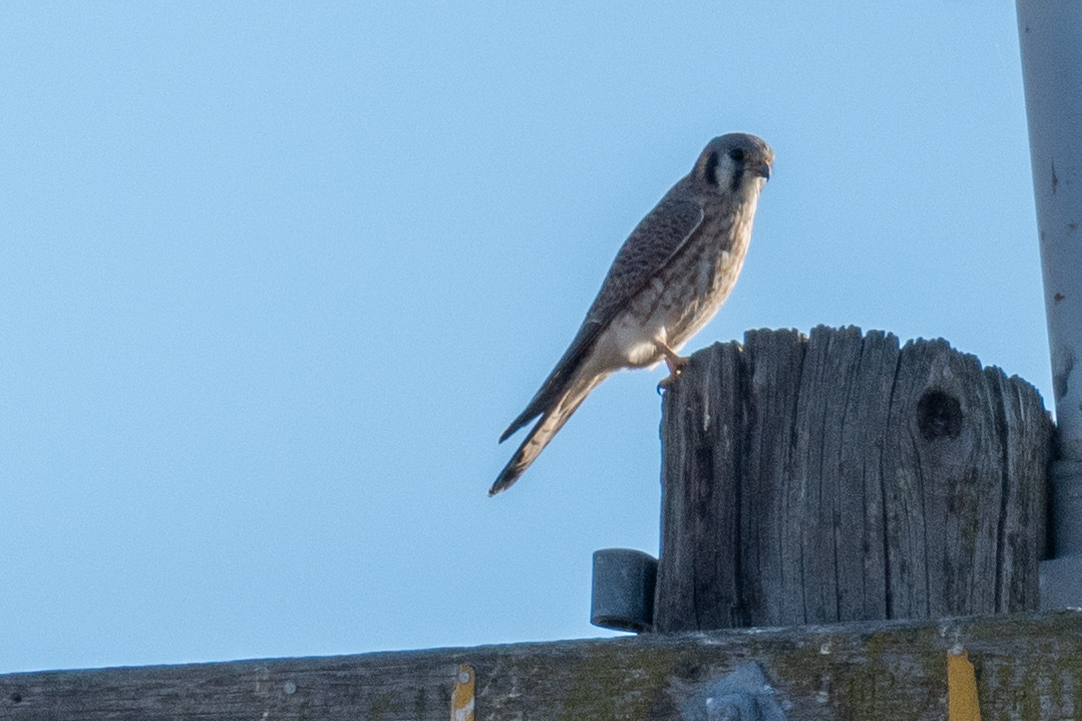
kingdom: Animalia
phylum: Chordata
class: Aves
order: Falconiformes
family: Falconidae
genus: Falco
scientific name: Falco sparverius
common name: American kestrel
